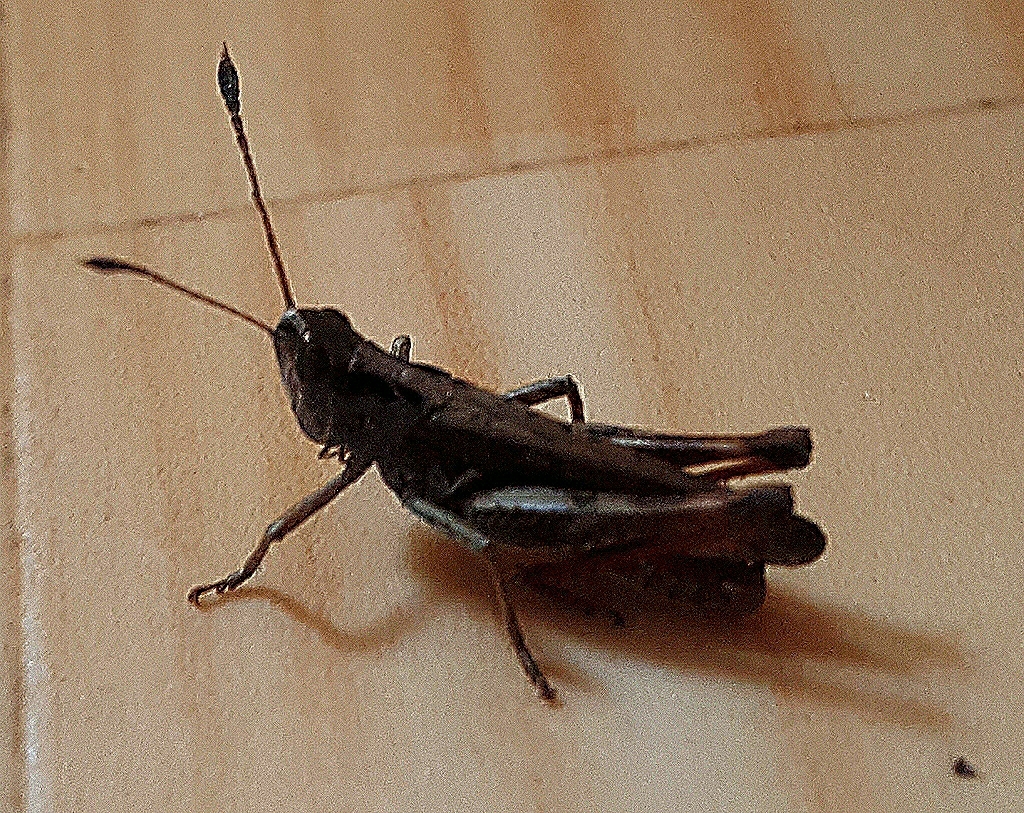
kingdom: Animalia
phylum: Arthropoda
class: Insecta
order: Orthoptera
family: Acrididae
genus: Gomphocerippus
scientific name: Gomphocerippus rufus
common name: Rufous grasshopper
